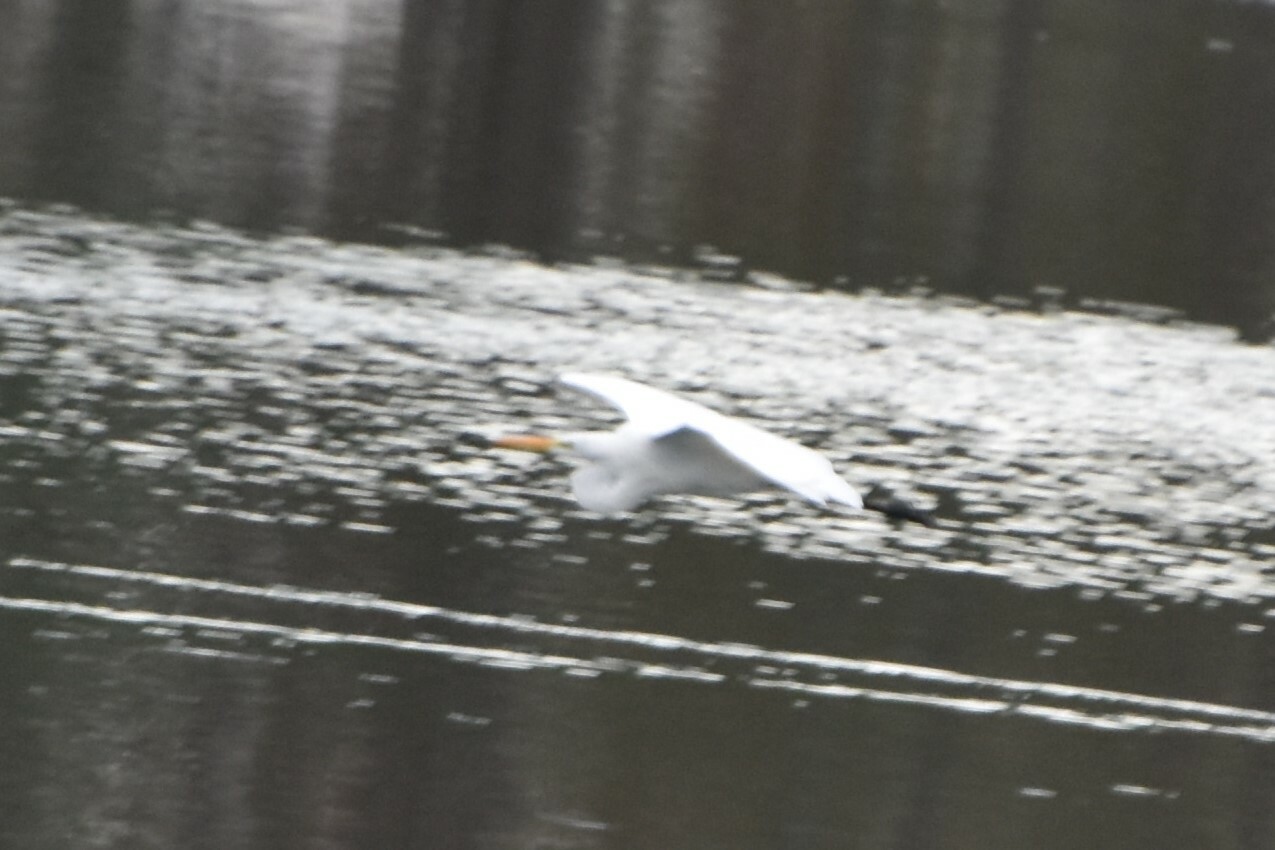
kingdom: Animalia
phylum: Chordata
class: Aves
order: Pelecaniformes
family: Ardeidae
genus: Ardea
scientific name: Ardea alba
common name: Great egret
